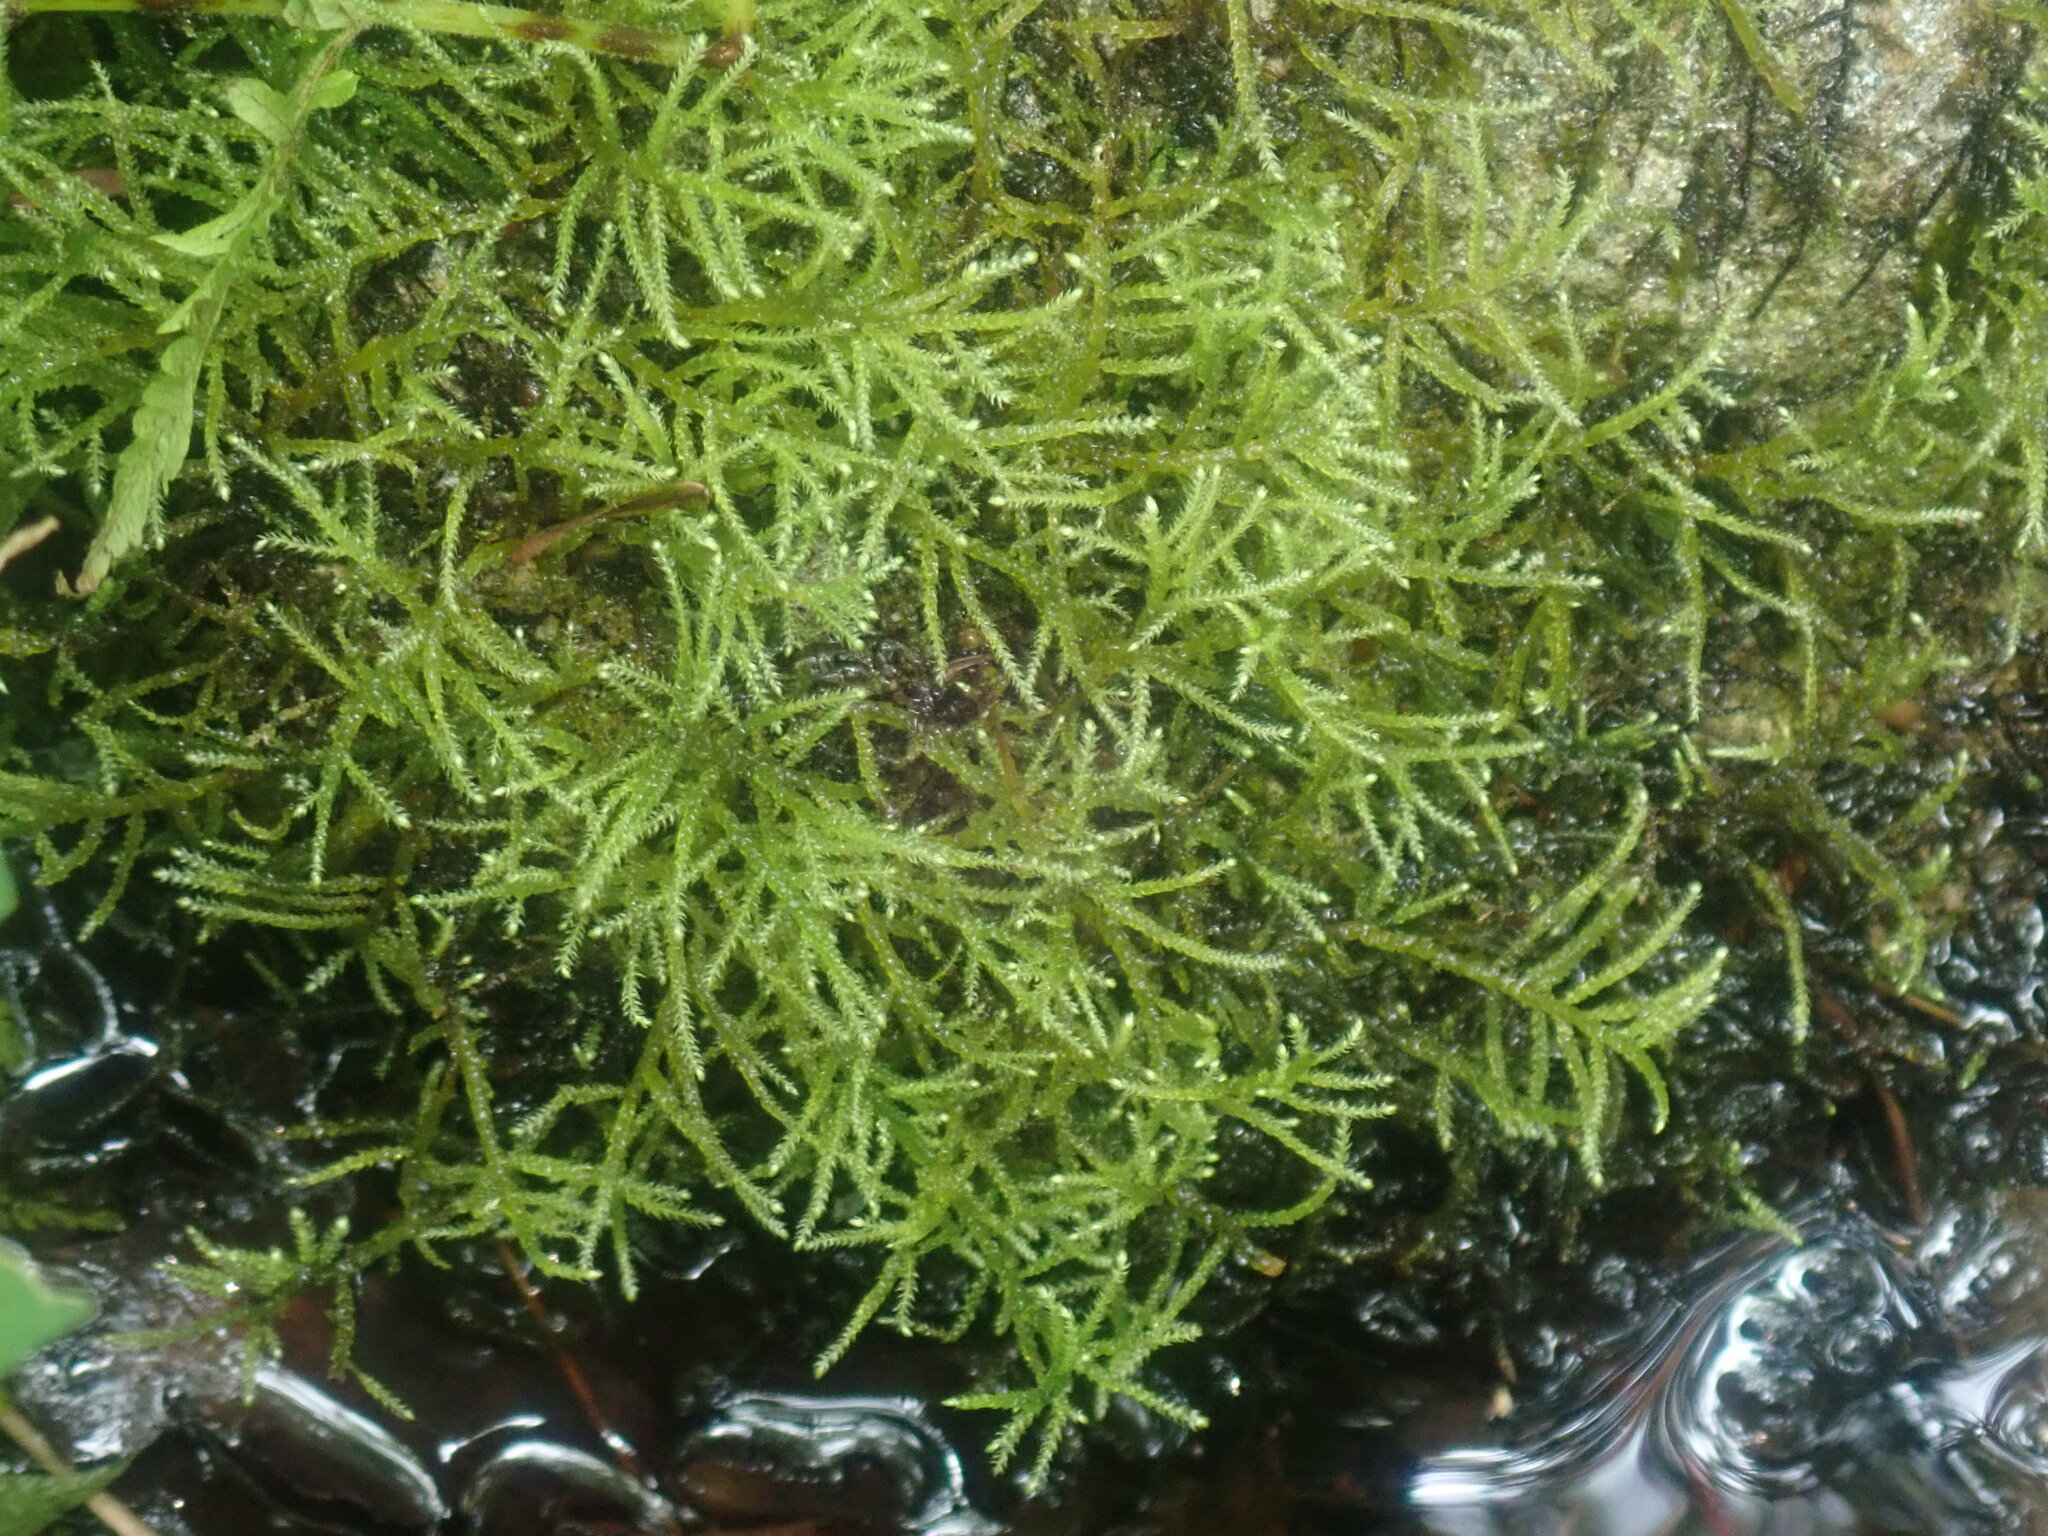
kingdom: Plantae
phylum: Bryophyta
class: Bryopsida
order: Hypnales
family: Scorpidiaceae
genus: Hygrohypnella
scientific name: Hygrohypnella ochracea
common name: Hygrohypnum moss
